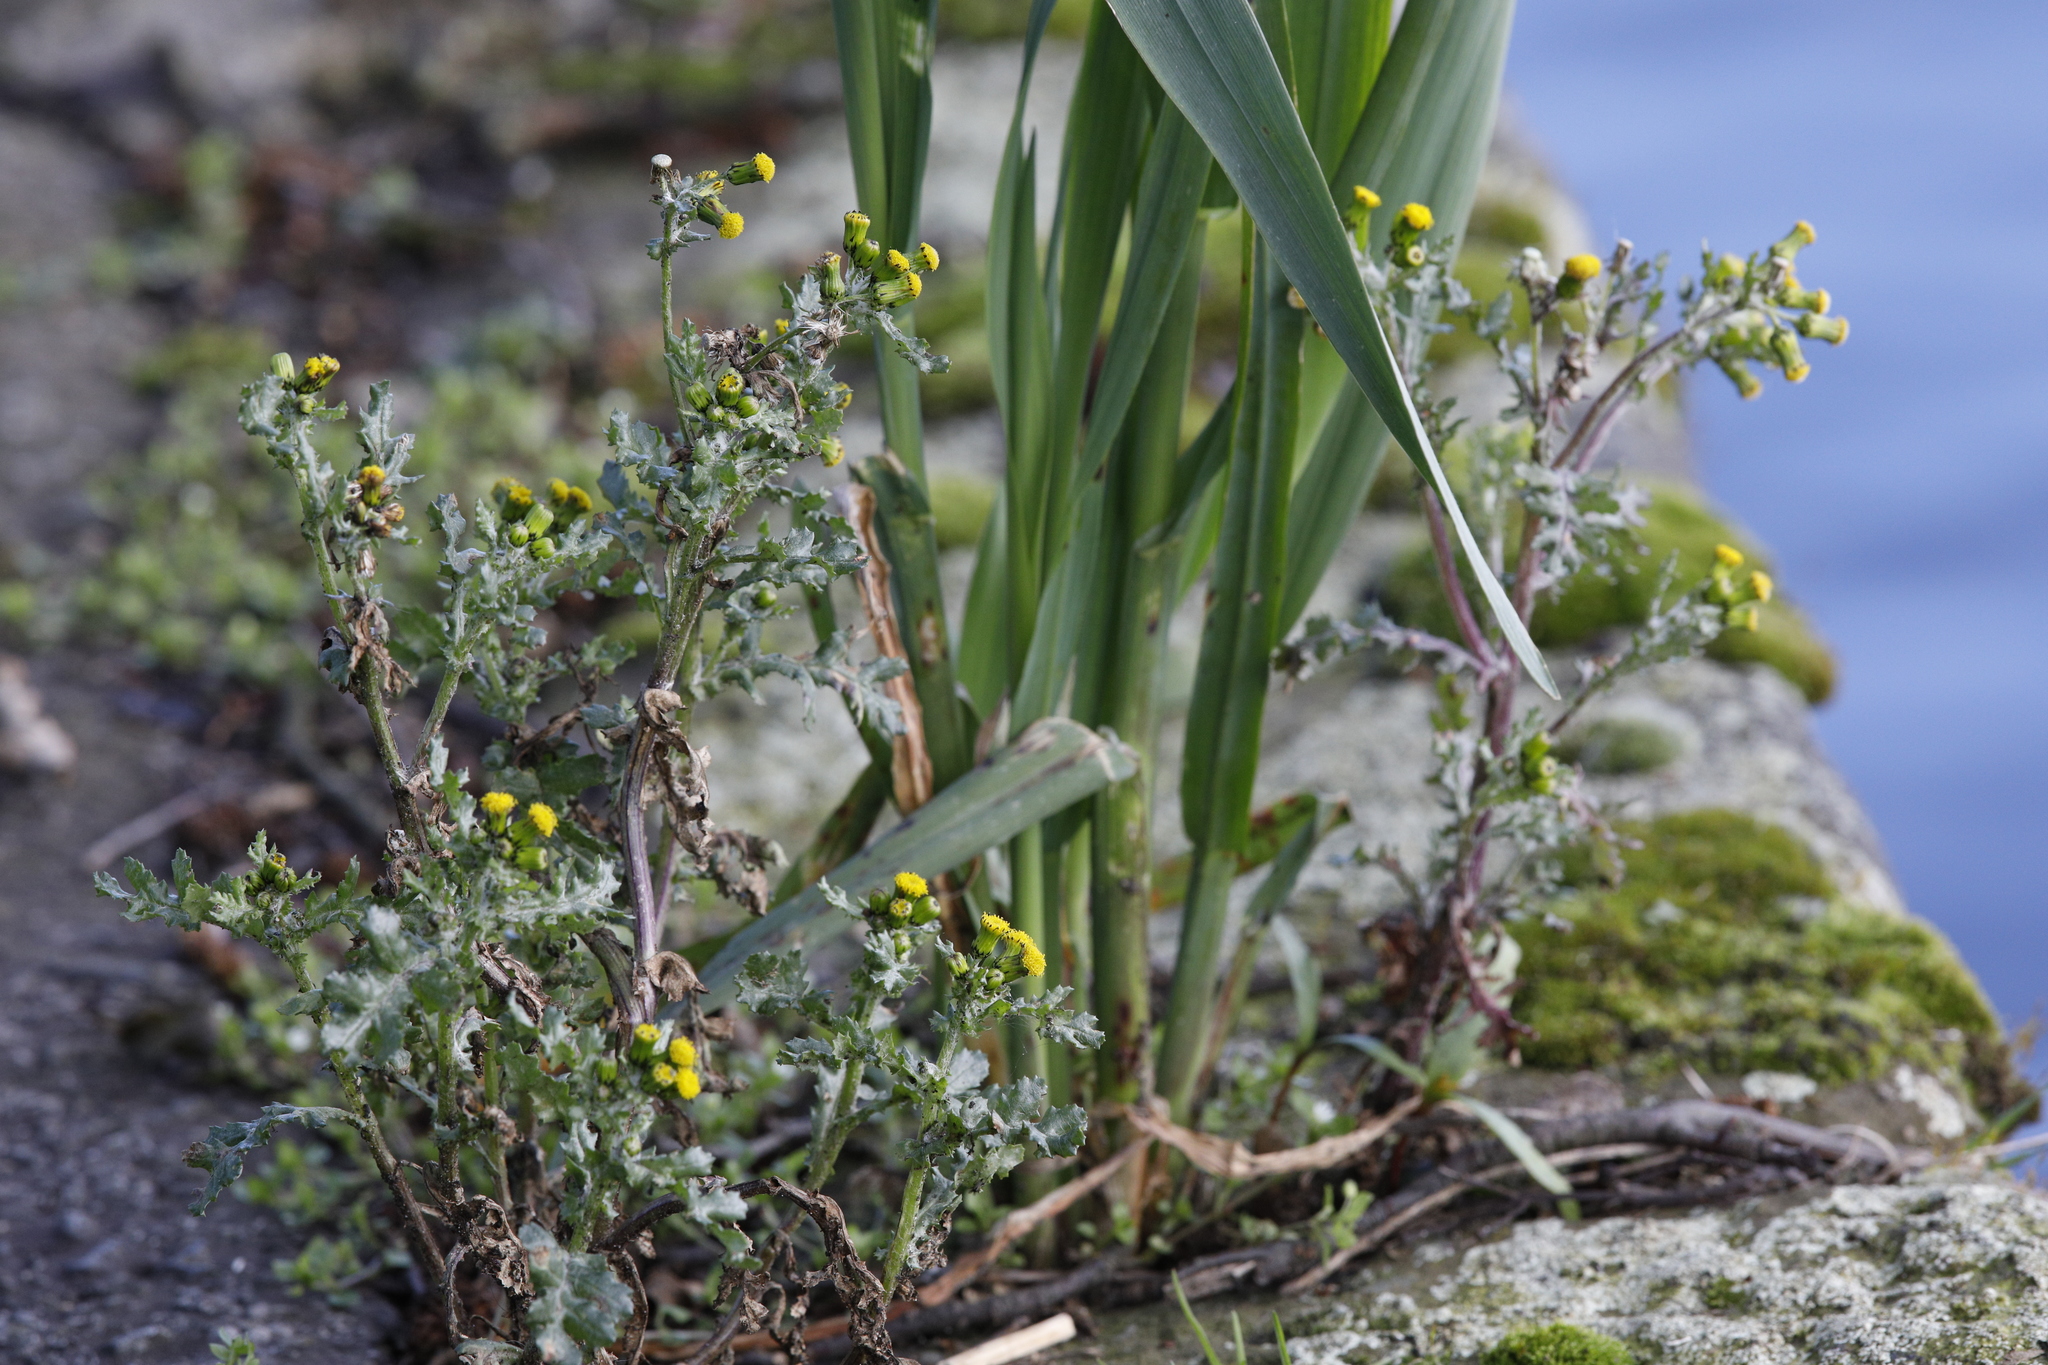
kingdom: Plantae
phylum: Tracheophyta
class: Magnoliopsida
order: Asterales
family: Asteraceae
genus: Senecio
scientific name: Senecio vulgaris
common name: Old-man-in-the-spring
